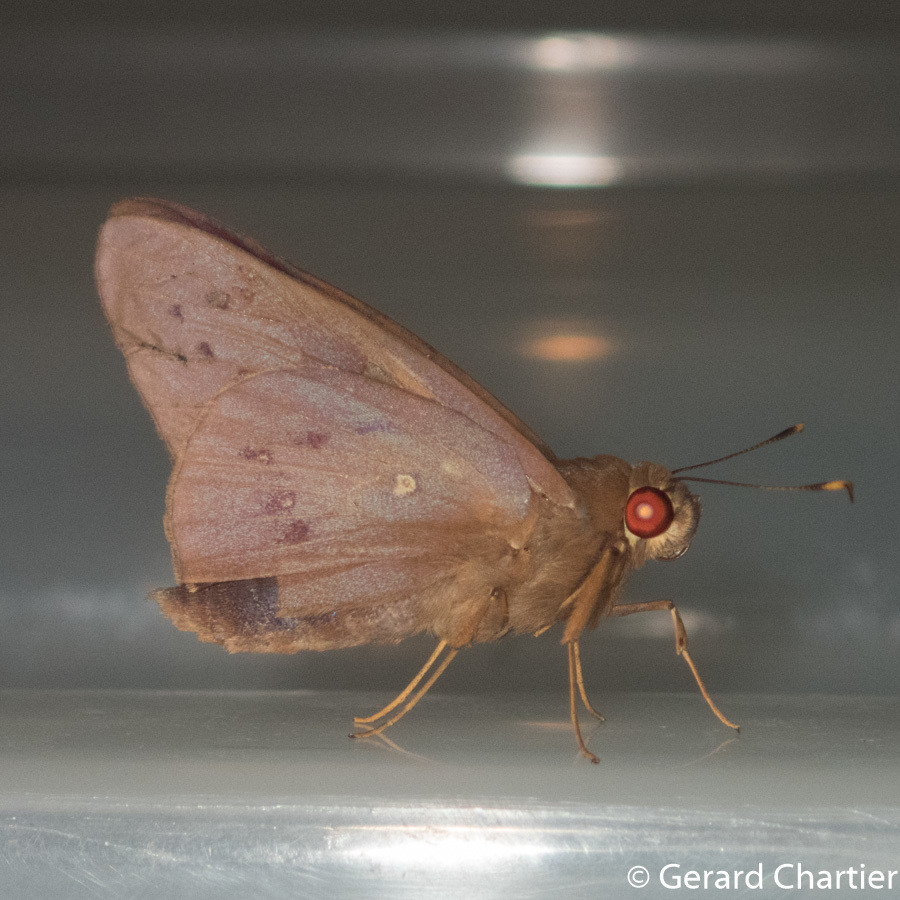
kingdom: Animalia
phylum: Arthropoda
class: Insecta
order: Lepidoptera
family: Hesperiidae
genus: Hidari
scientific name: Hidari irava
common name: Coconut skipper
